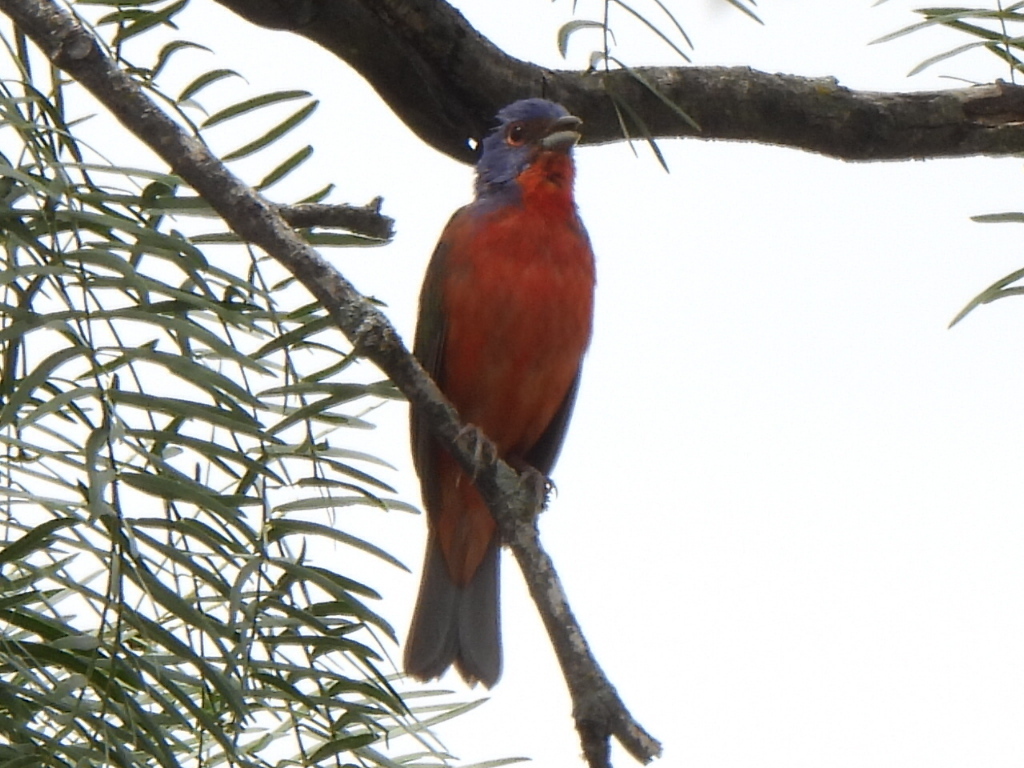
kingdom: Animalia
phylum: Chordata
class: Aves
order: Passeriformes
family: Cardinalidae
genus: Passerina
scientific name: Passerina ciris
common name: Painted bunting
